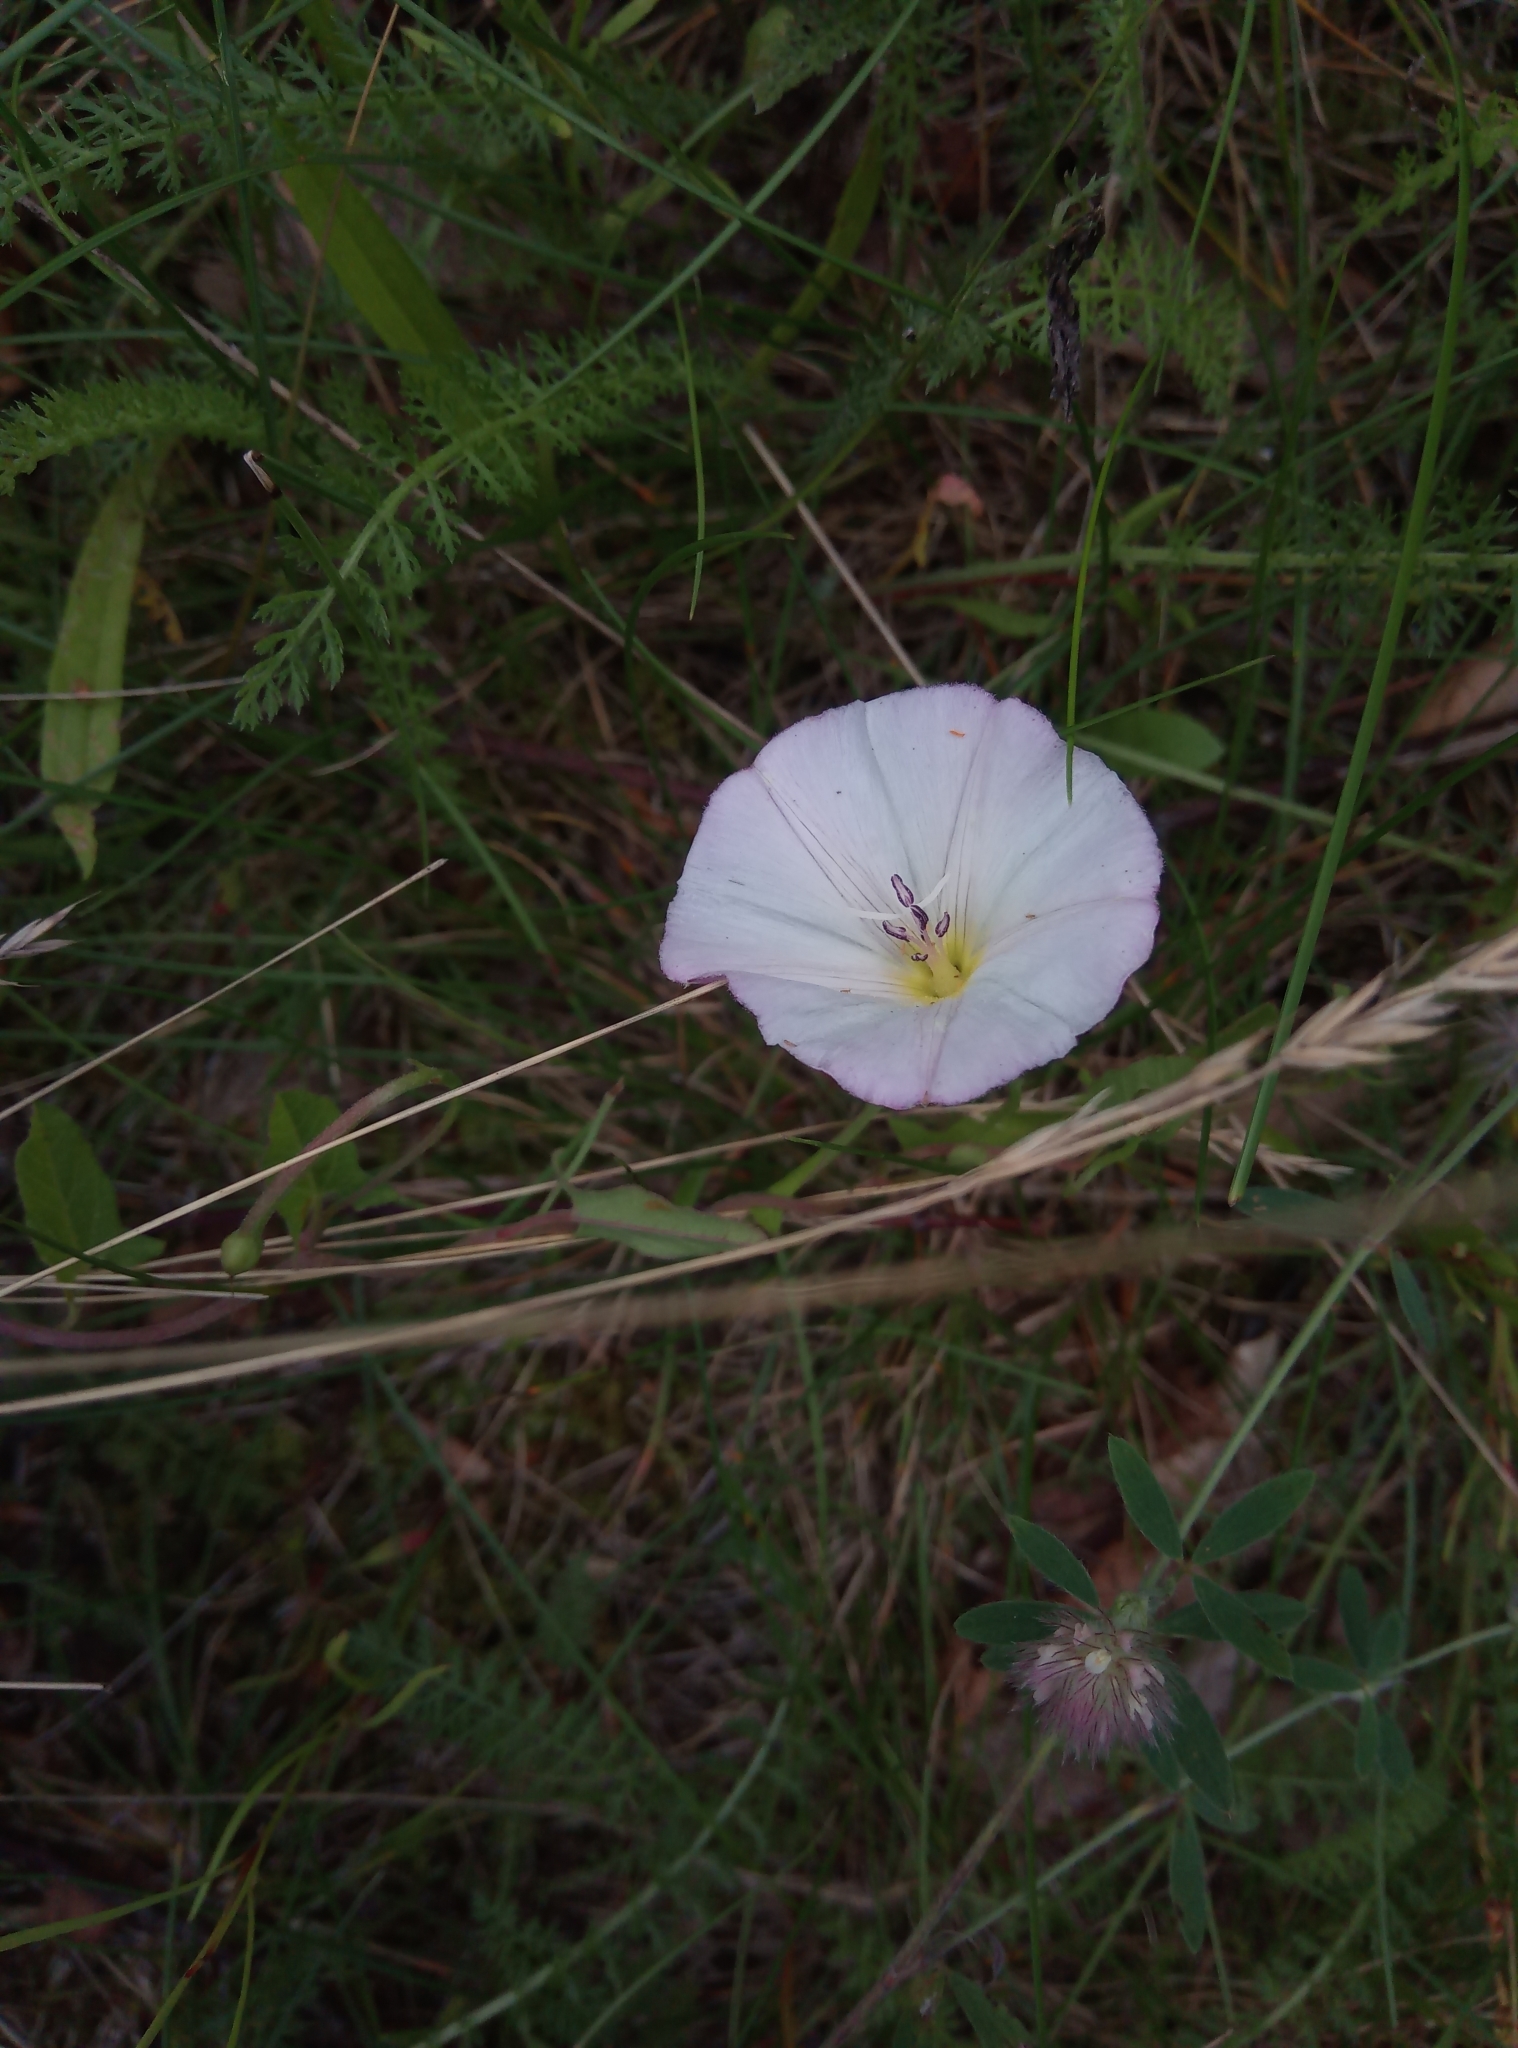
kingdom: Plantae
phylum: Tracheophyta
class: Magnoliopsida
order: Solanales
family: Convolvulaceae
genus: Convolvulus
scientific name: Convolvulus arvensis
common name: Field bindweed
